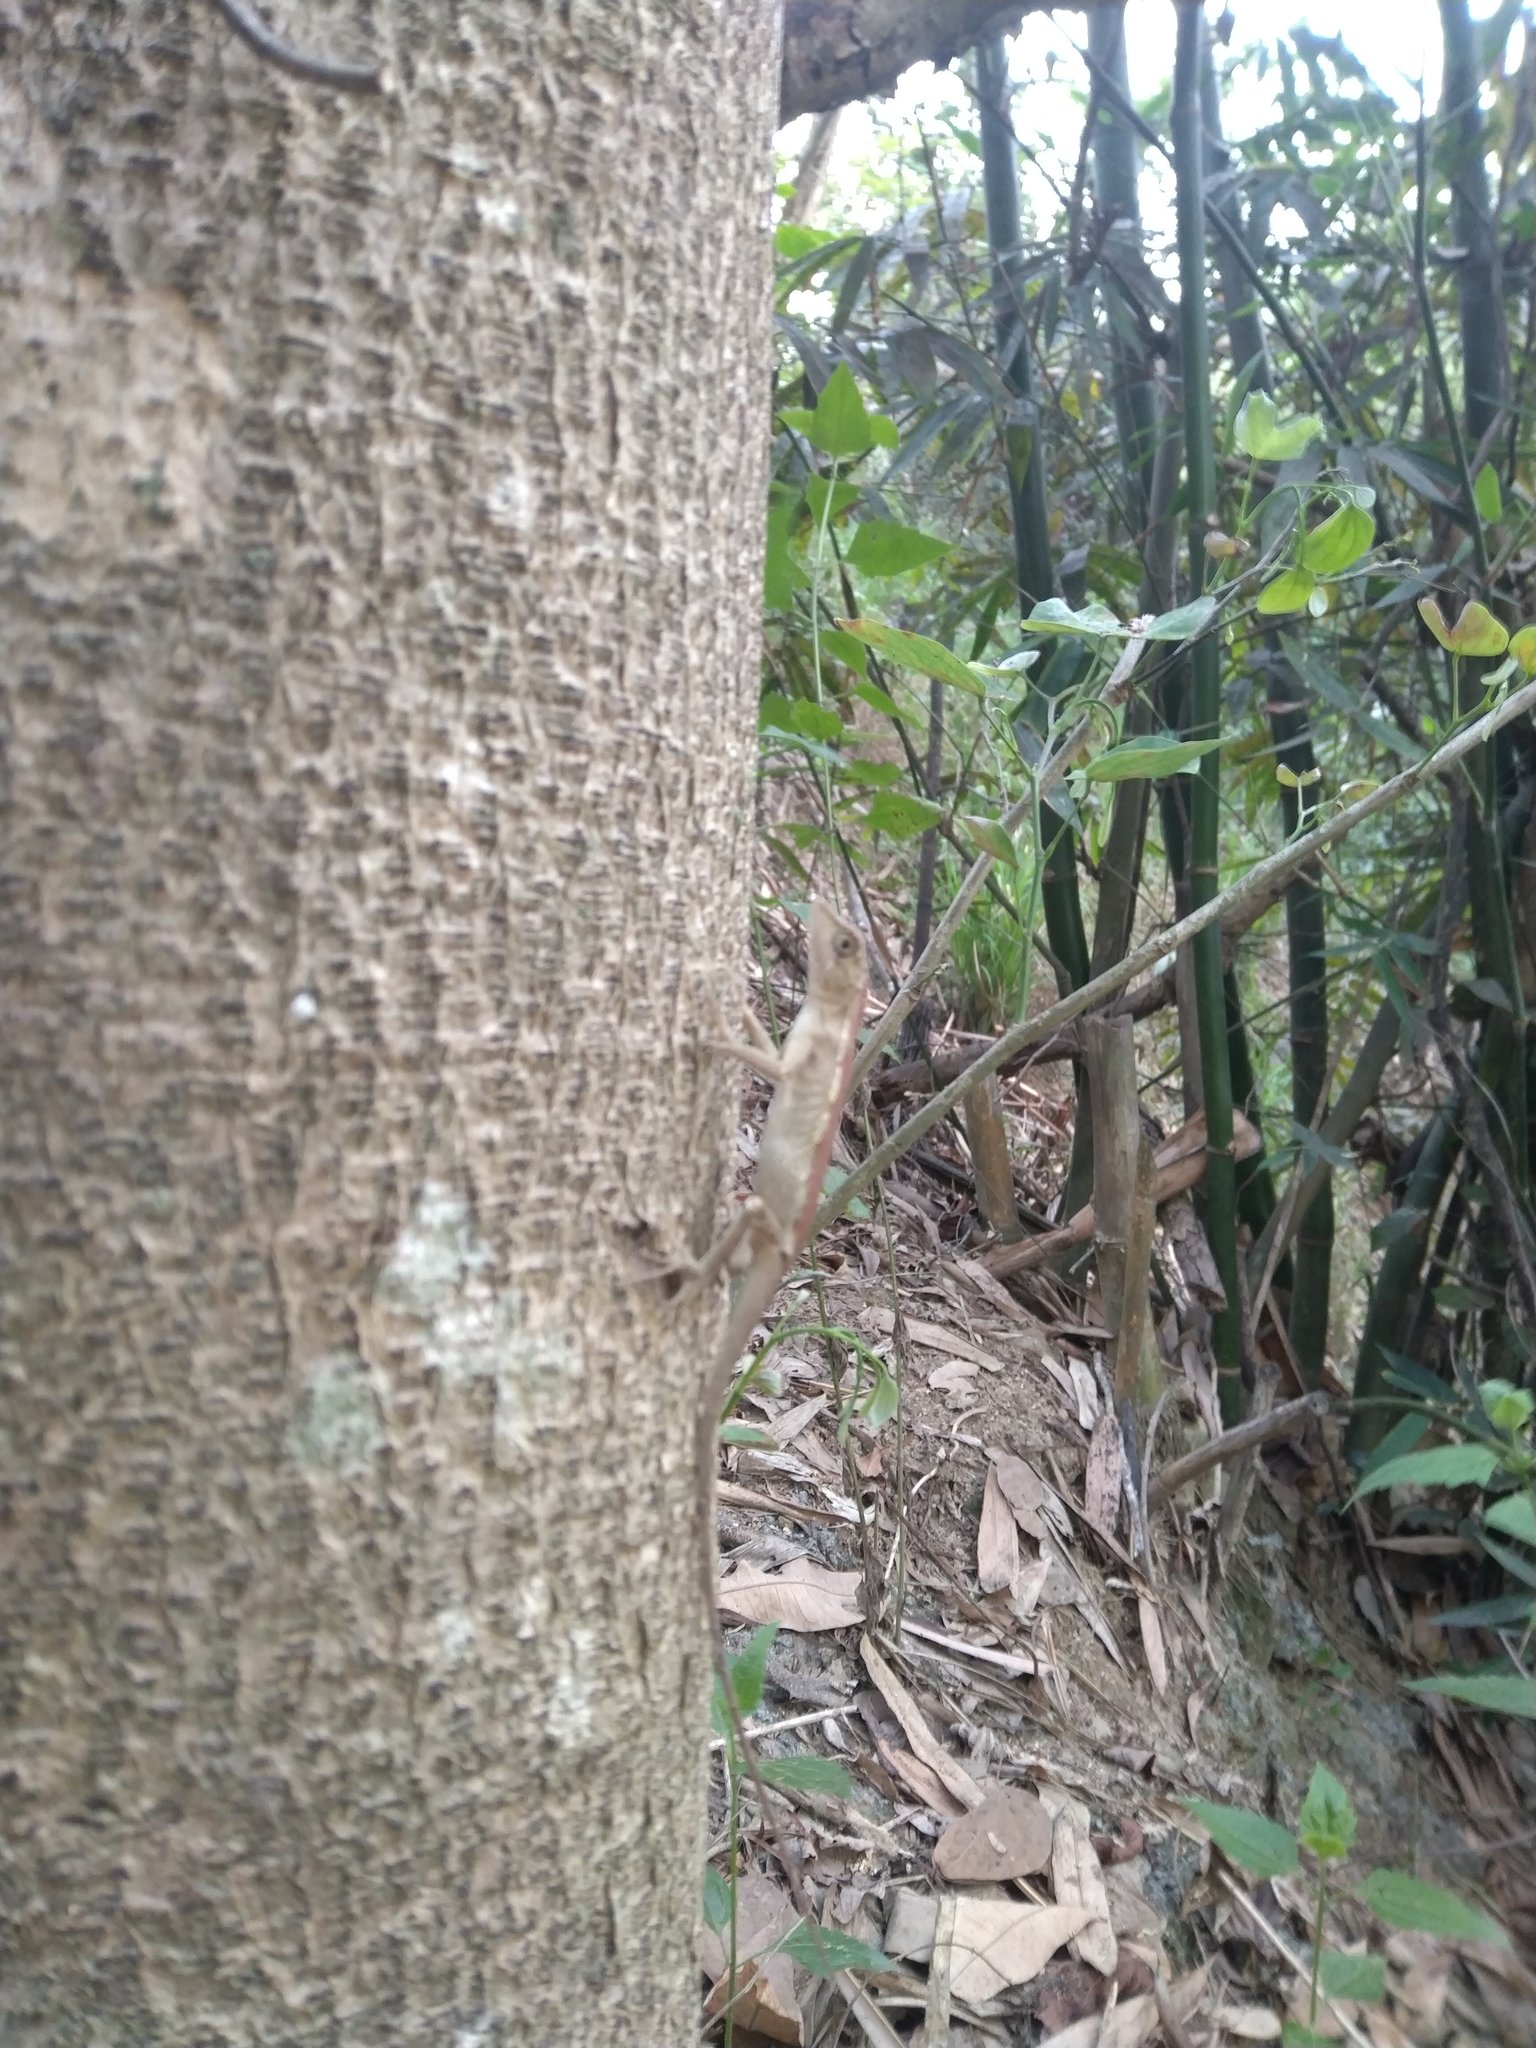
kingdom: Animalia
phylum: Chordata
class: Squamata
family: Agamidae
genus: Diploderma
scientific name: Diploderma swinhonis
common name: Taiwan japalure
